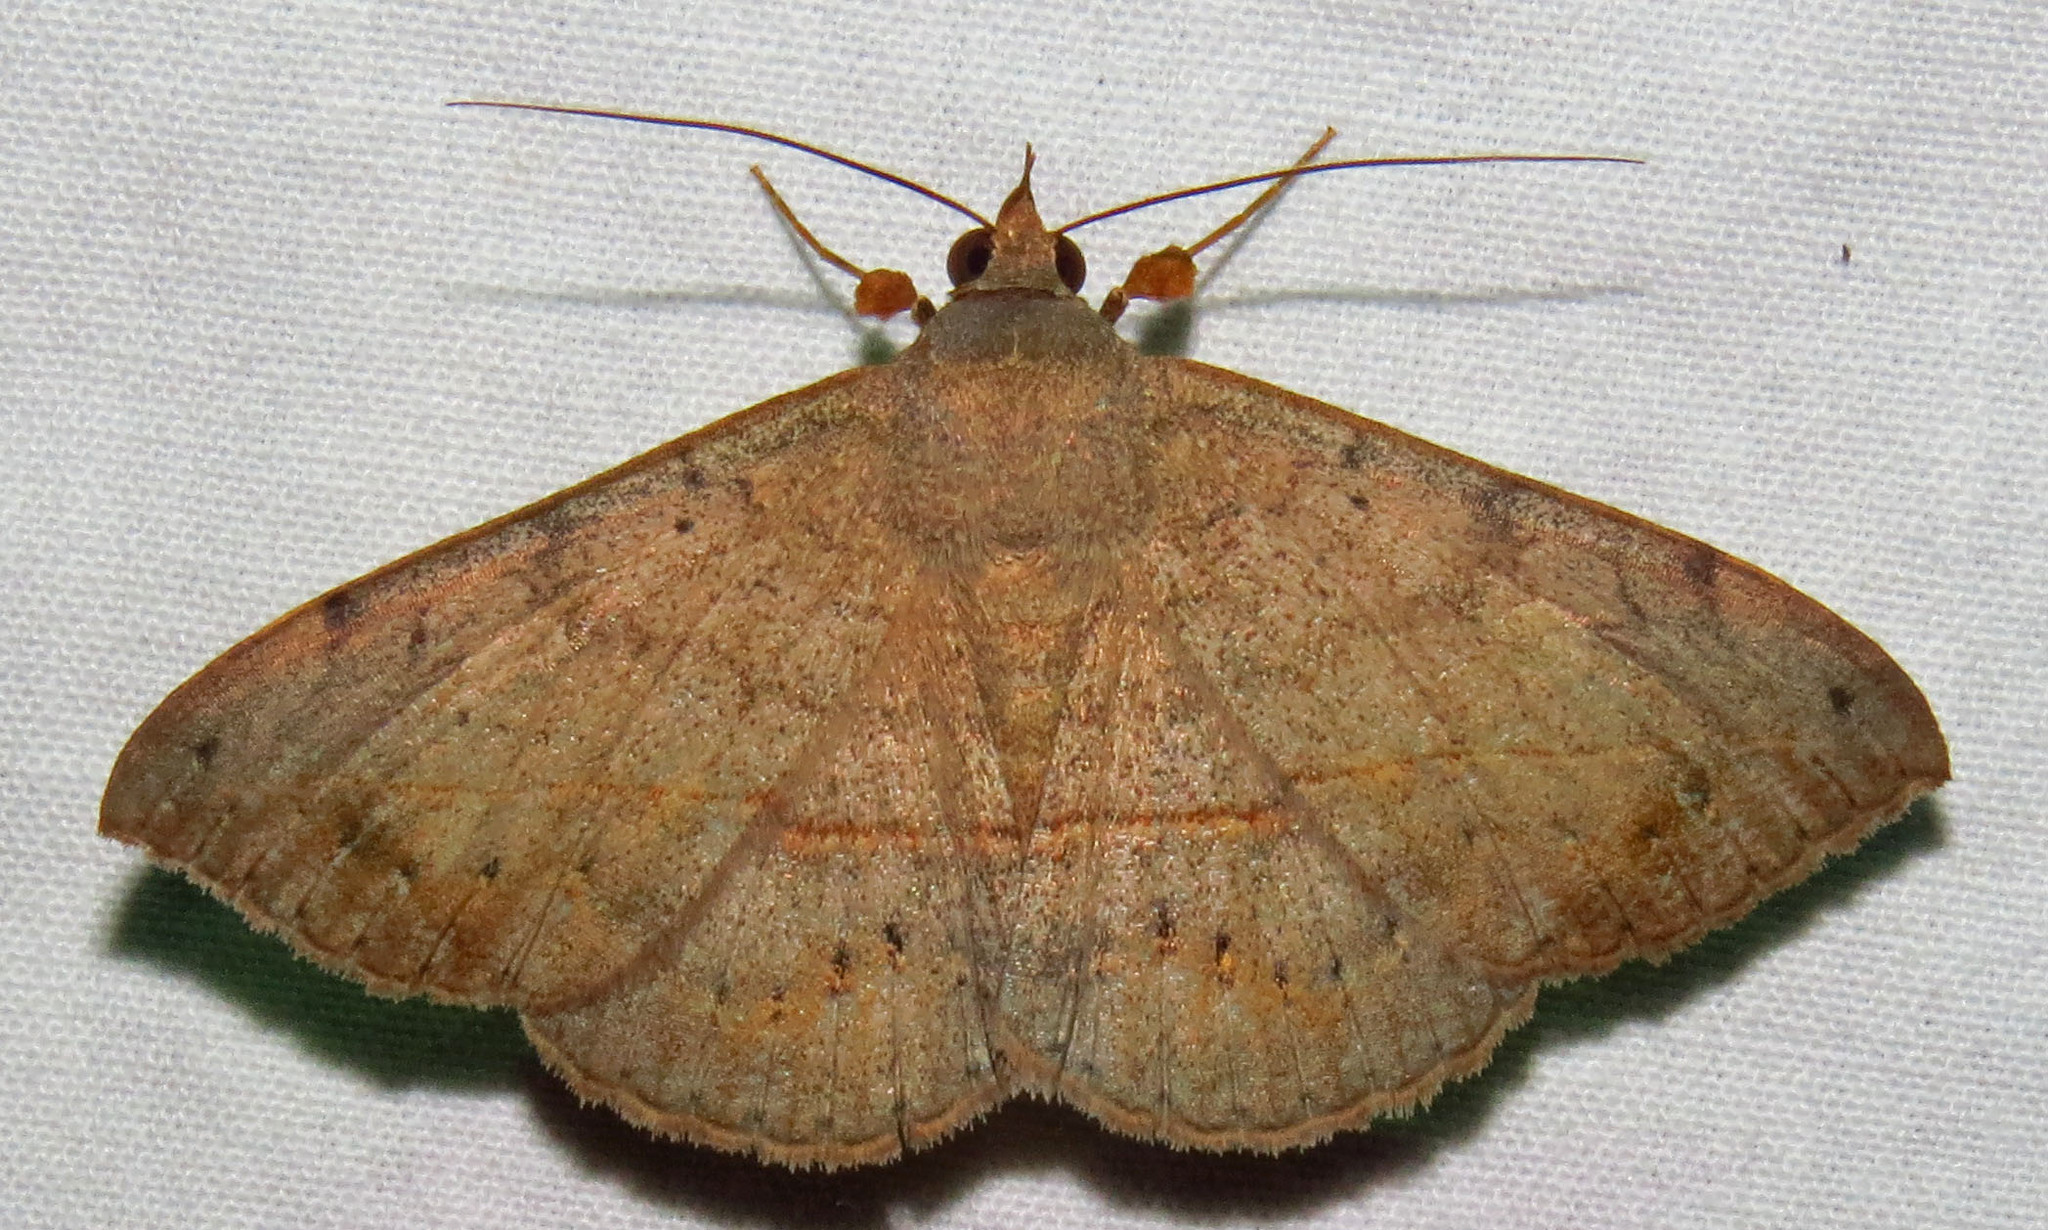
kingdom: Animalia
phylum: Arthropoda
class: Insecta
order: Lepidoptera
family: Erebidae
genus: Anticarsia
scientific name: Anticarsia gemmatalis
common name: Cutworm moth
